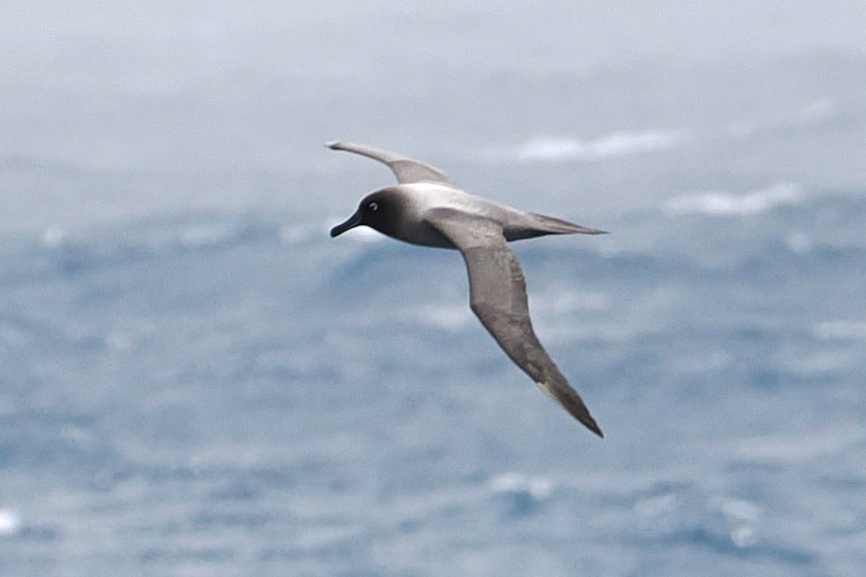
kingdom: Animalia
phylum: Chordata
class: Aves
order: Procellariiformes
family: Diomedeidae
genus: Phoebetria
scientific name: Phoebetria palpebrata
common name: Light-mantled albatross
